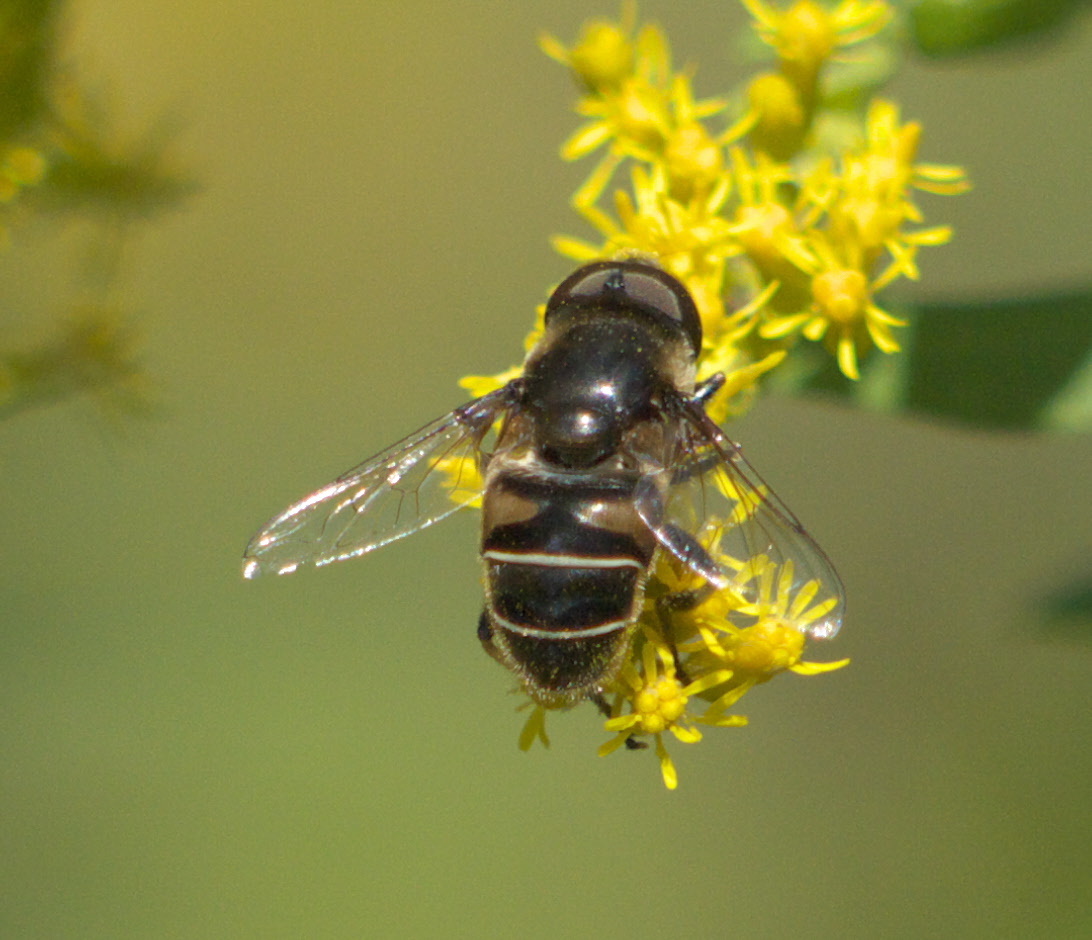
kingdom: Animalia
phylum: Arthropoda
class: Insecta
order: Diptera
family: Syrphidae
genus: Eristalis
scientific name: Eristalis dimidiata
